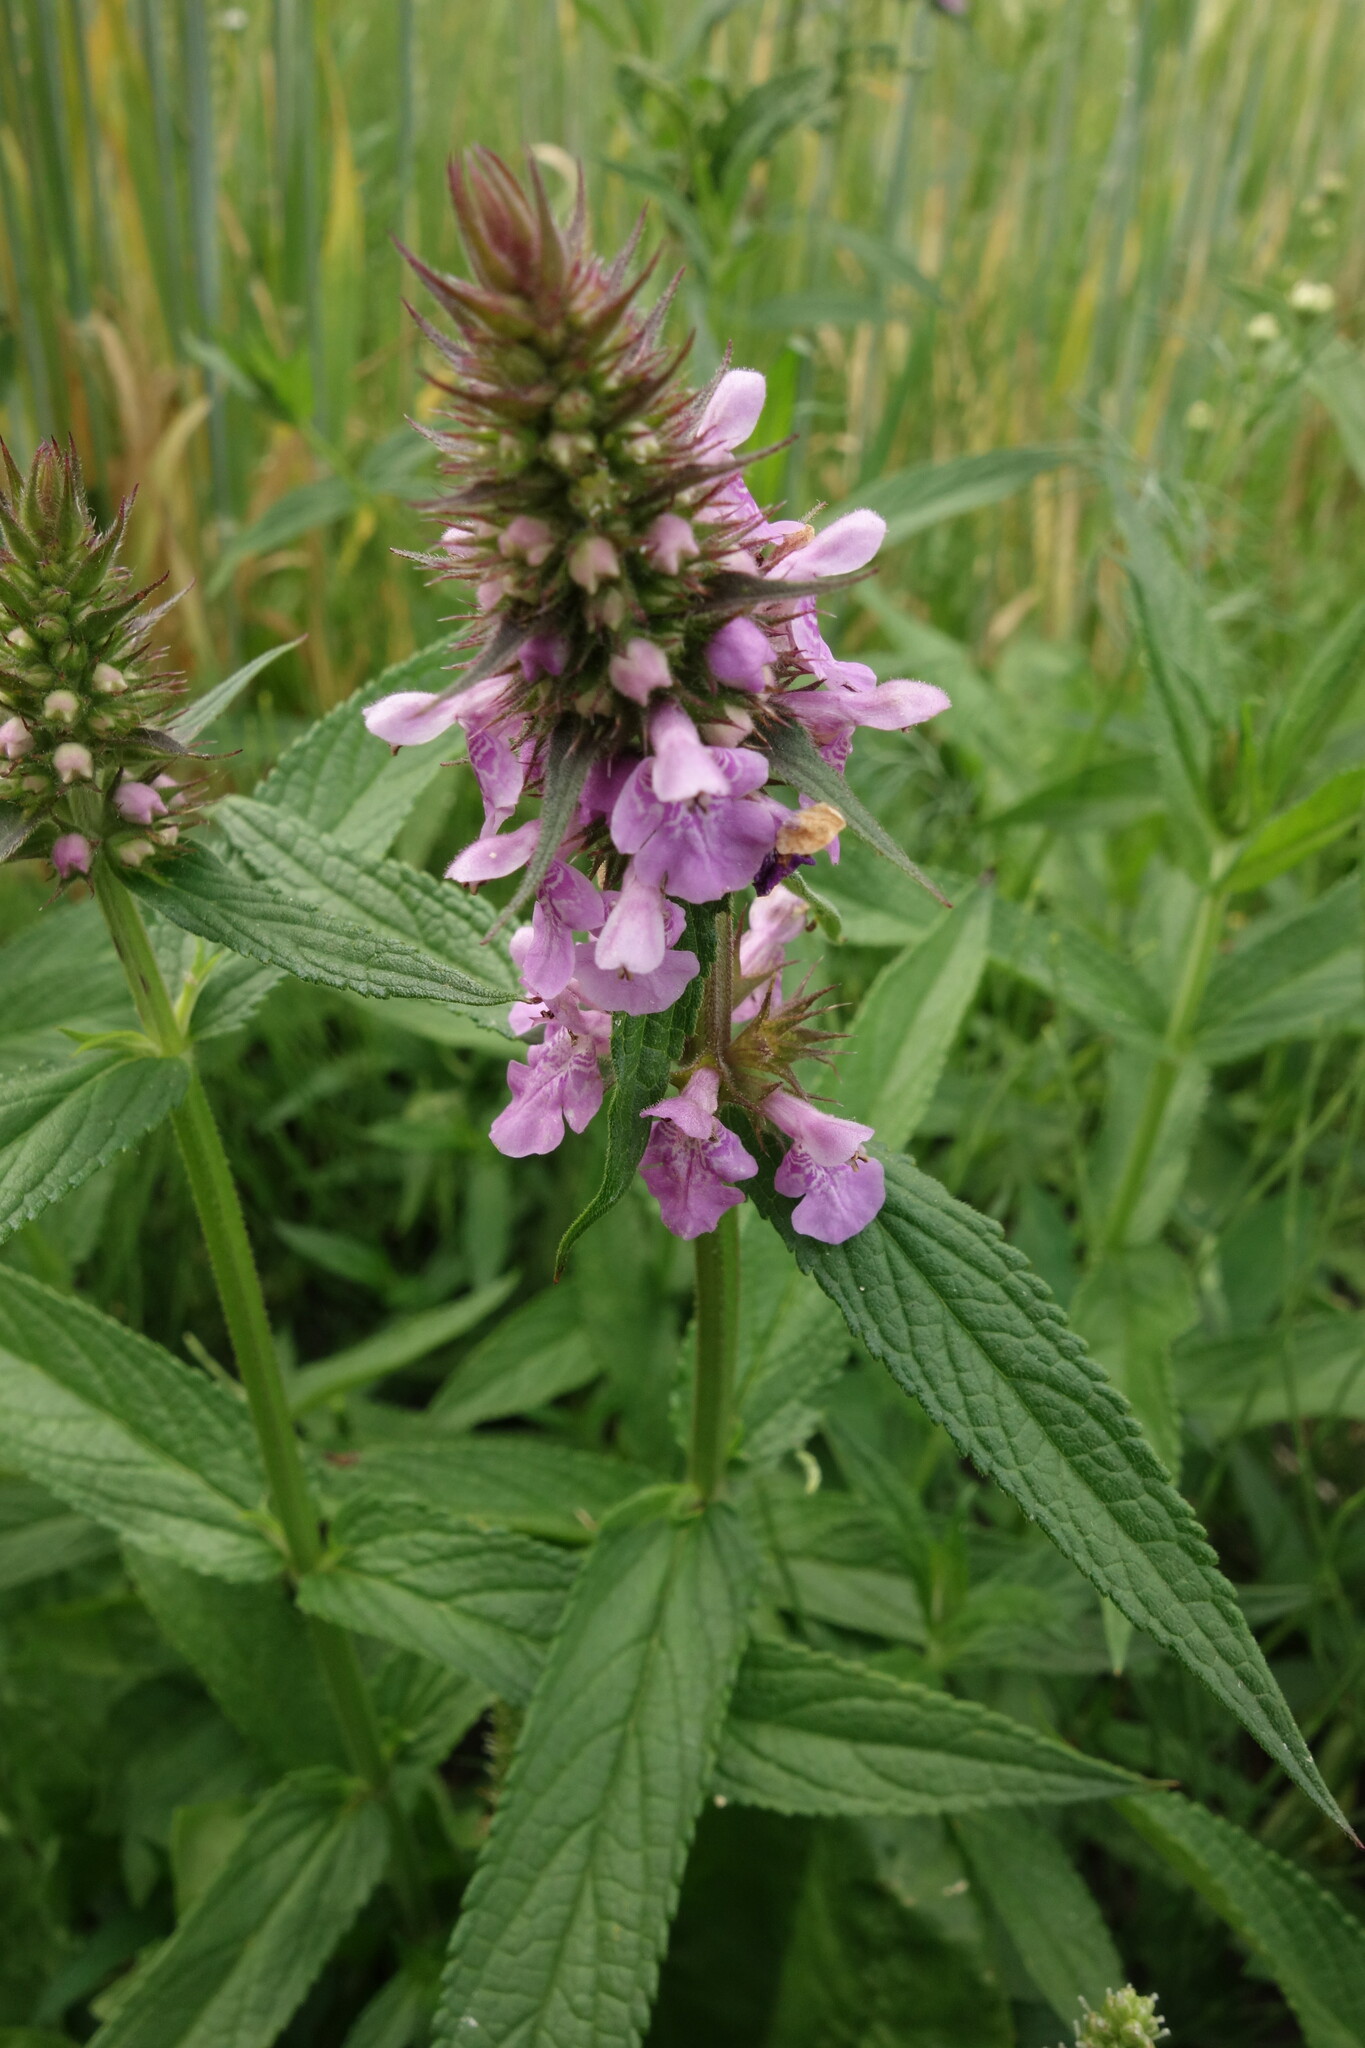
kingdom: Plantae
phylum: Tracheophyta
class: Magnoliopsida
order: Lamiales
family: Lamiaceae
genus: Stachys
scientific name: Stachys palustris
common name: Marsh woundwort
